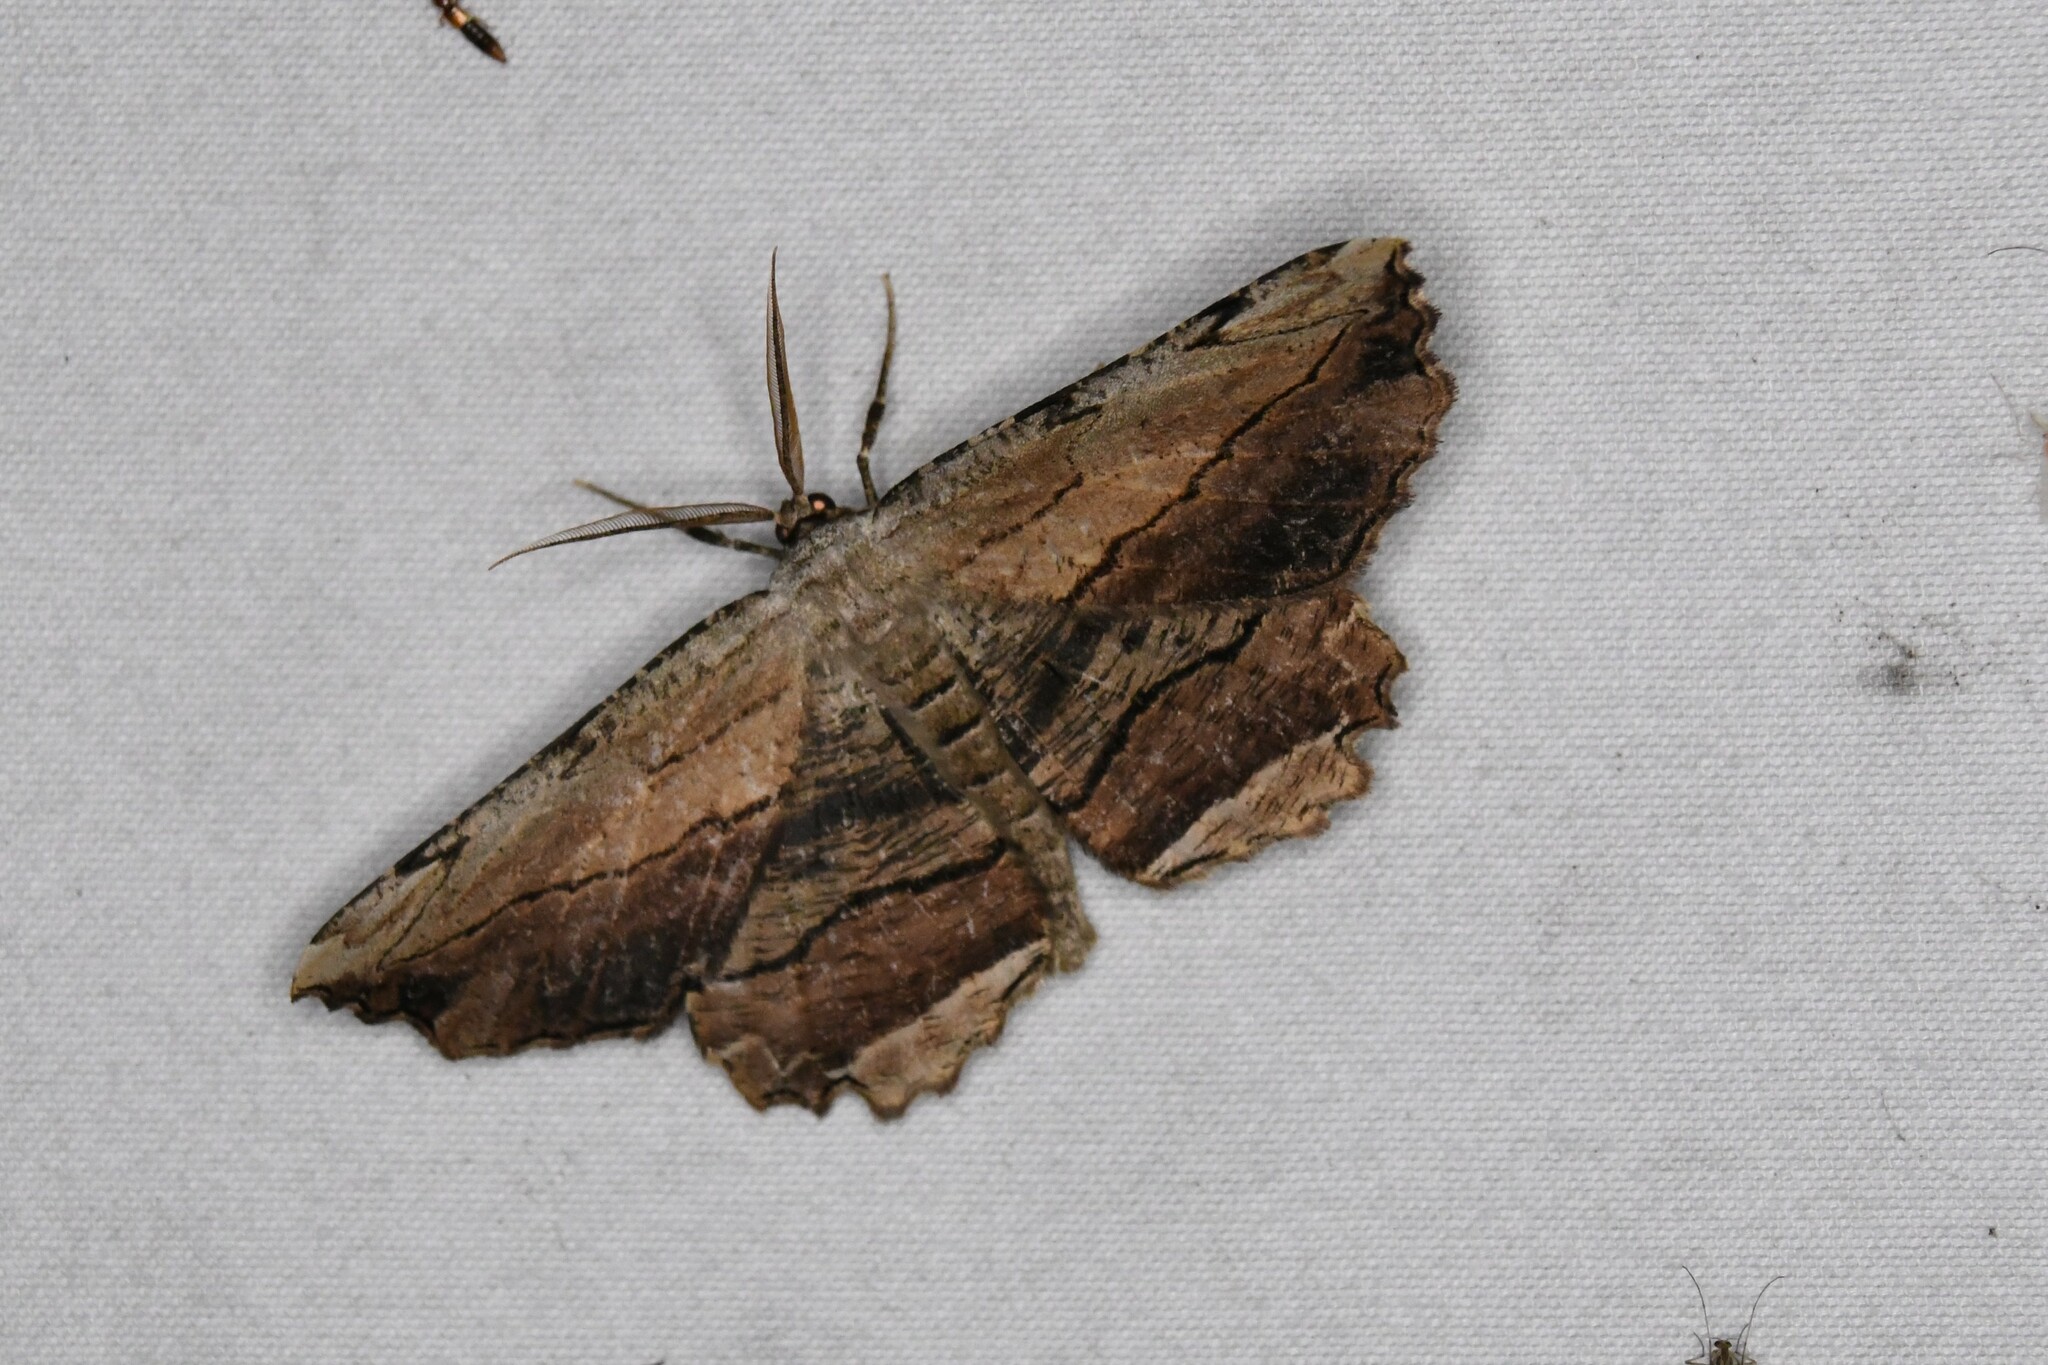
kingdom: Animalia
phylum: Arthropoda
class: Insecta
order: Lepidoptera
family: Geometridae
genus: Lytrosis
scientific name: Lytrosis unitaria
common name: Common lytrosis
